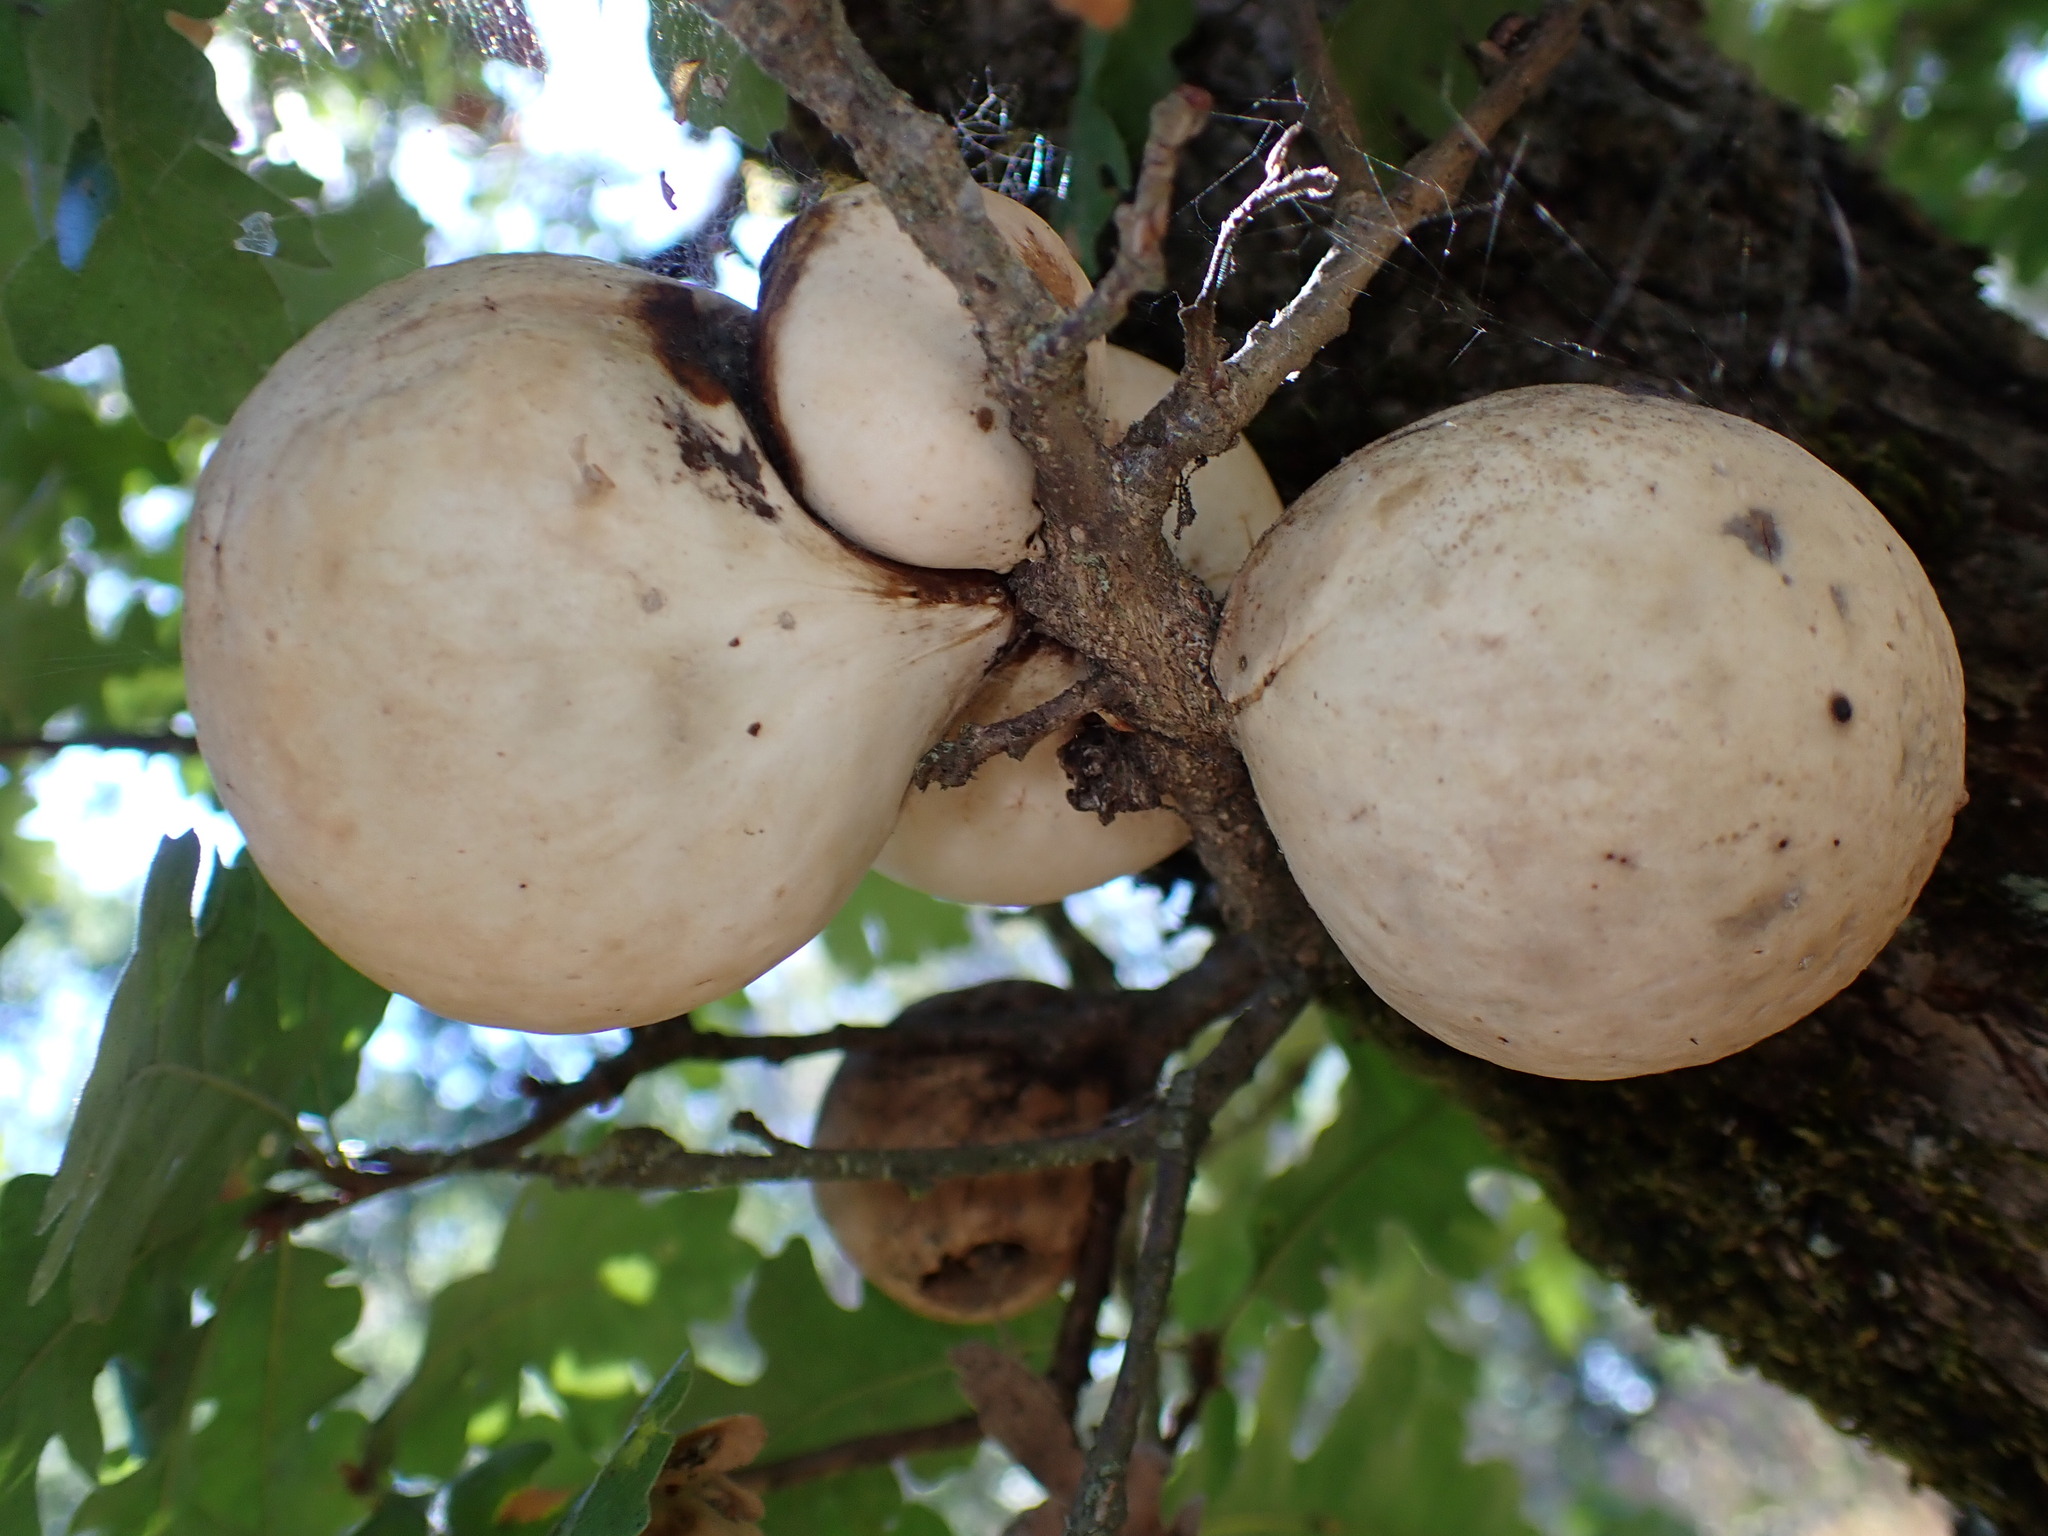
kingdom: Animalia
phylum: Arthropoda
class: Insecta
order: Hymenoptera
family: Cynipidae
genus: Andricus
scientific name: Andricus quercuscalifornicus
